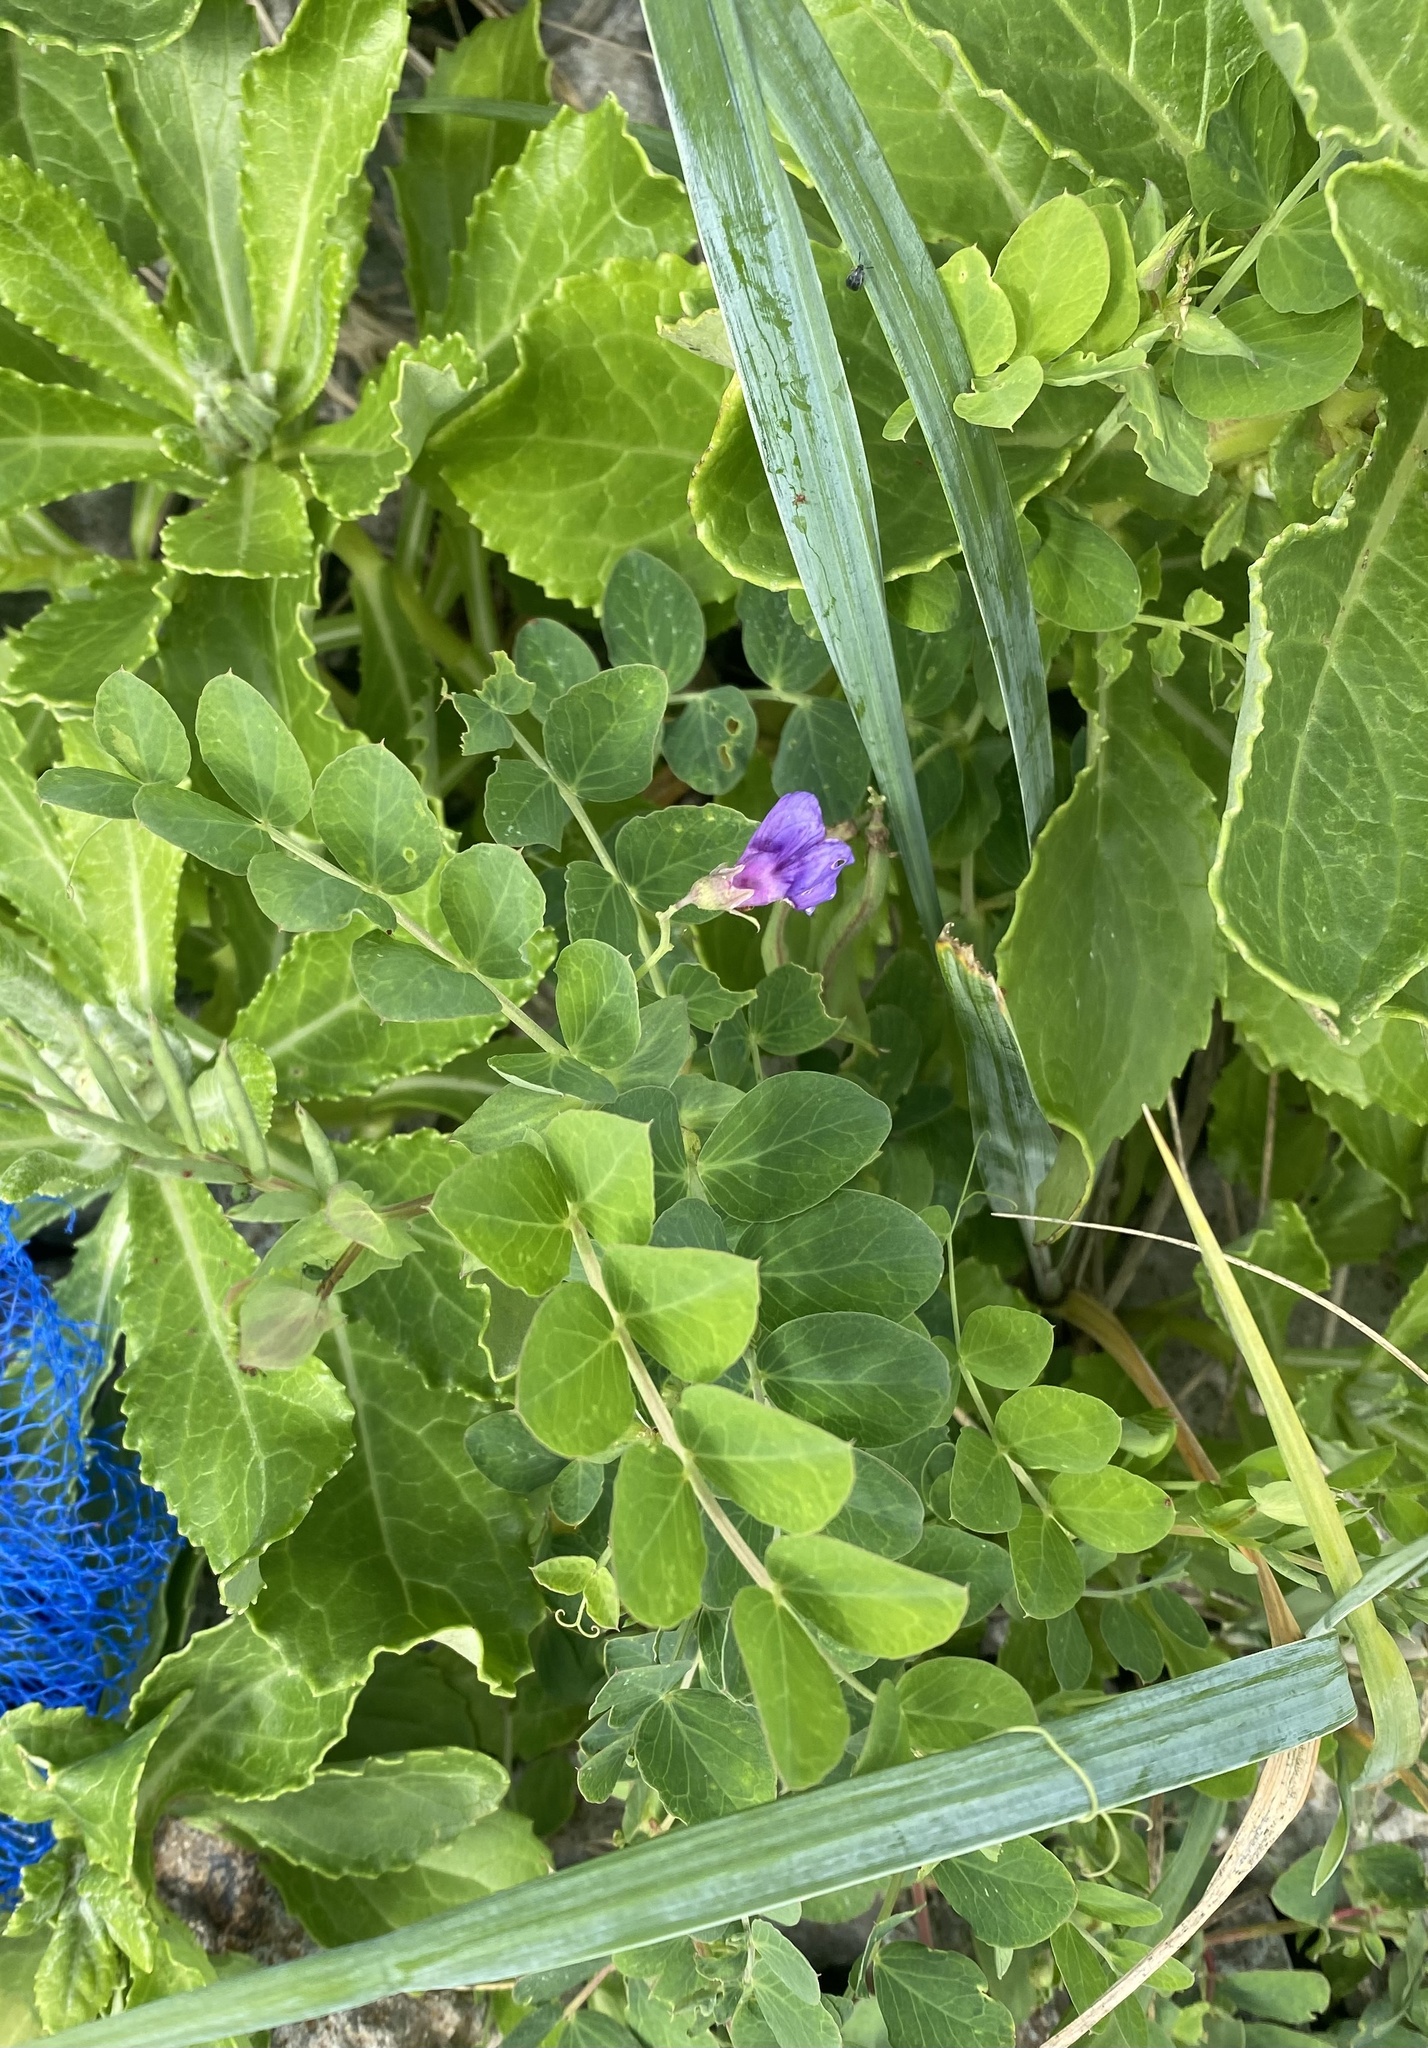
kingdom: Plantae
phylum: Tracheophyta
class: Magnoliopsida
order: Fabales
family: Fabaceae
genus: Lathyrus
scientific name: Lathyrus japonicus
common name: Sea pea
